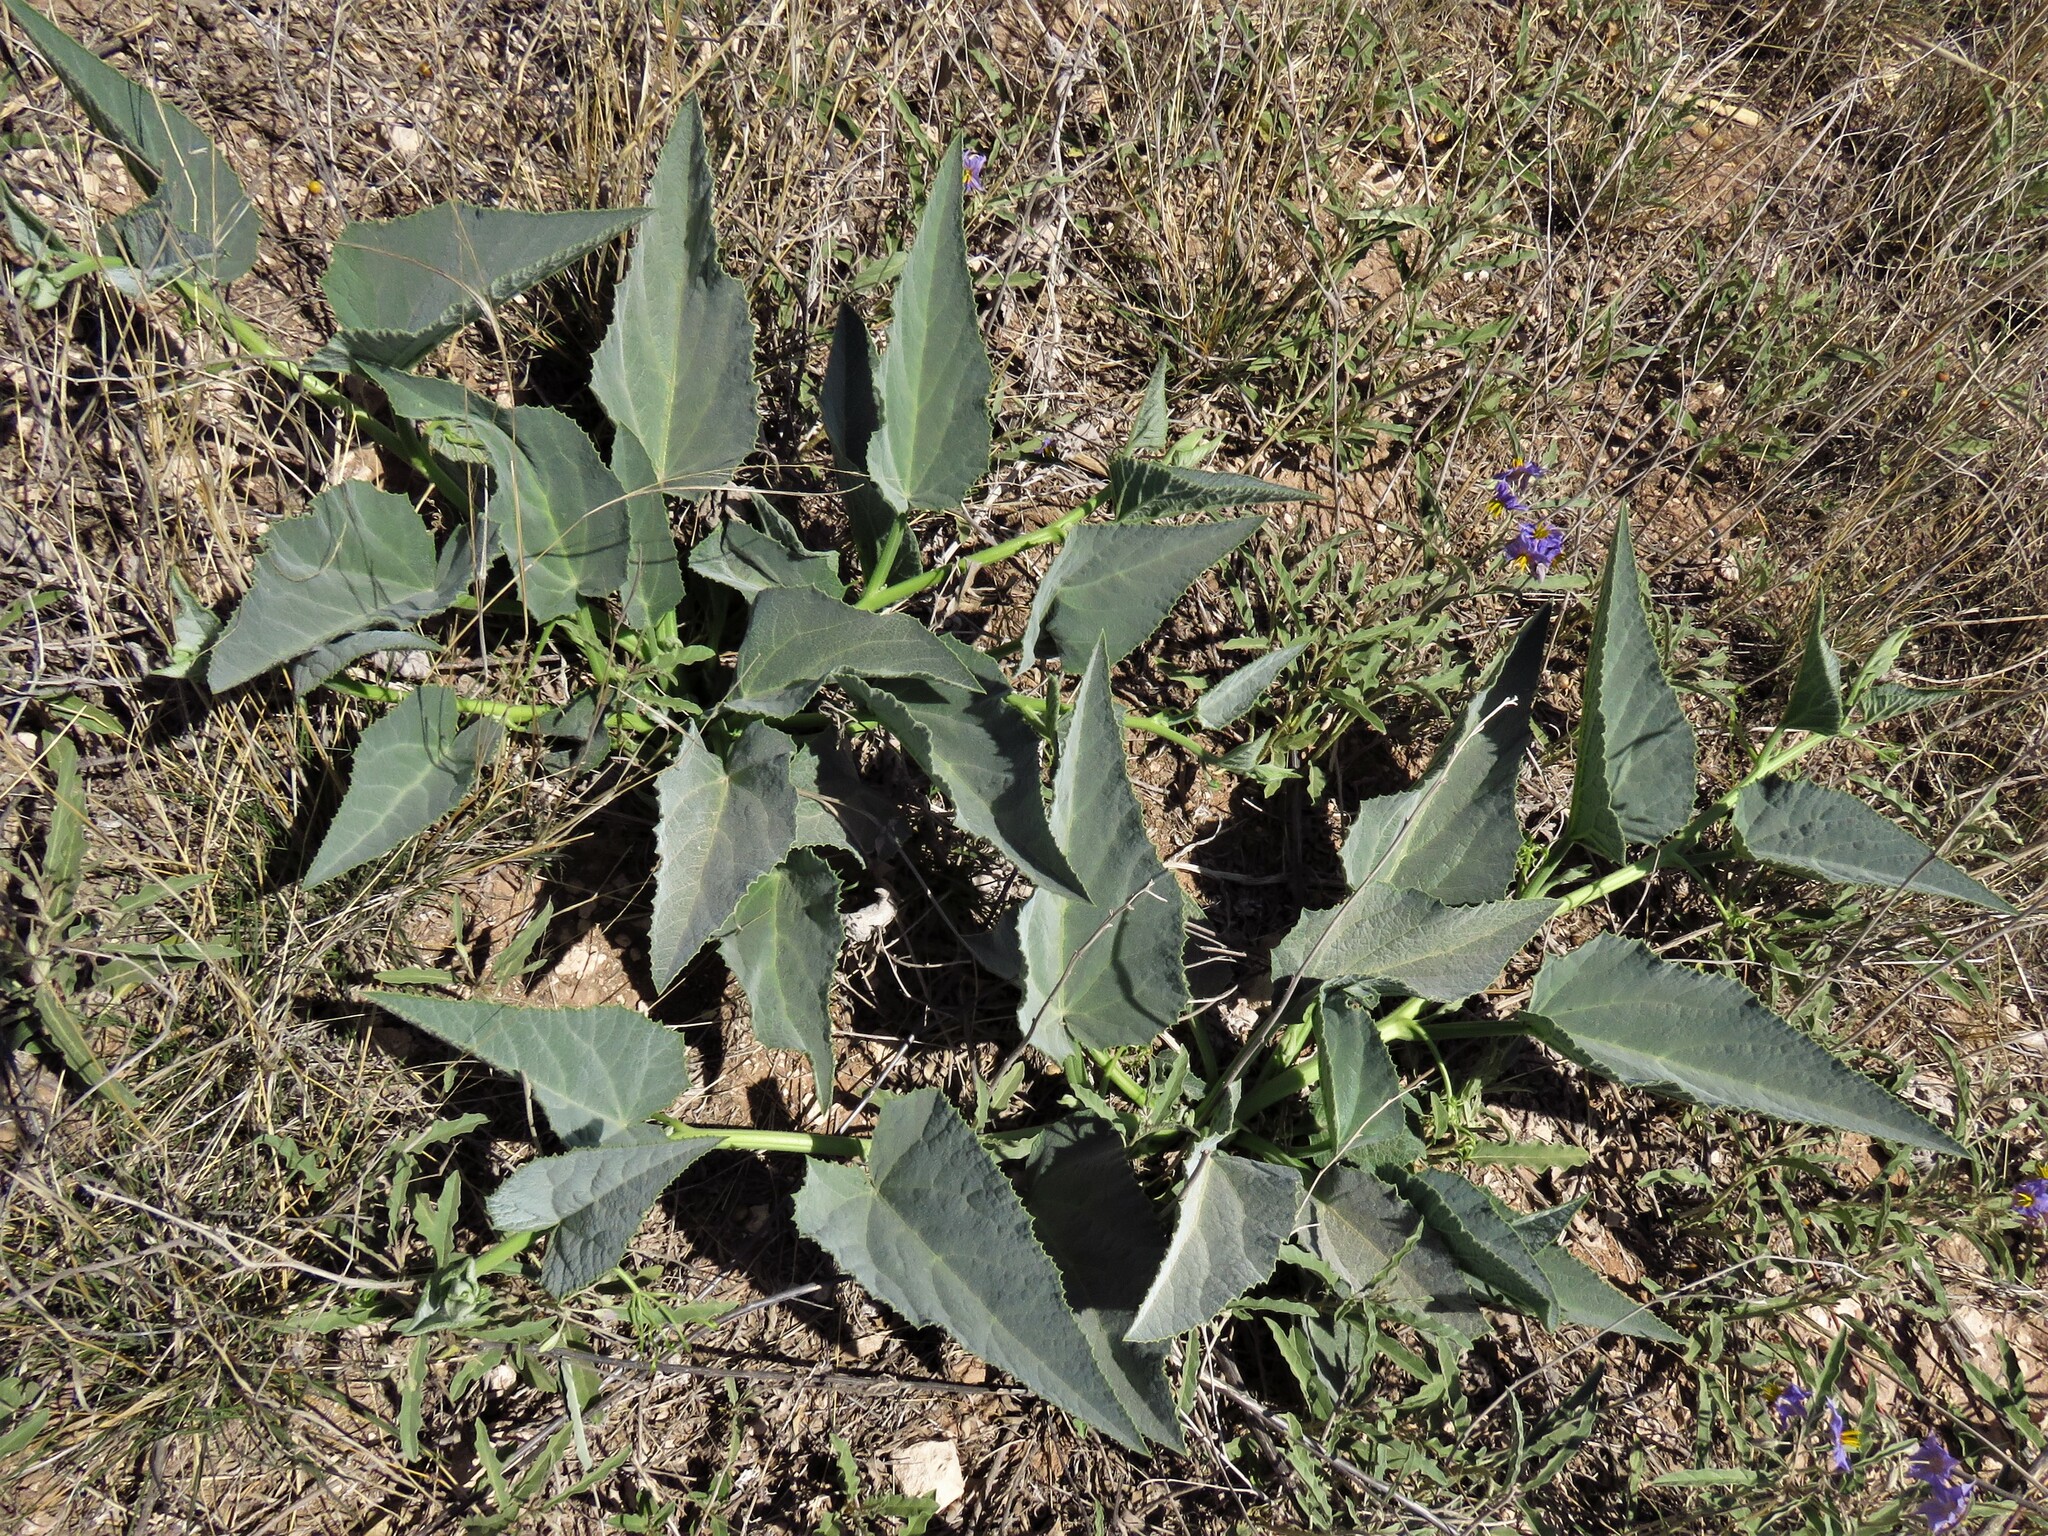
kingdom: Plantae
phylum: Tracheophyta
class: Magnoliopsida
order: Cucurbitales
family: Cucurbitaceae
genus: Cucurbita
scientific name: Cucurbita foetidissima
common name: Buffalo gourd
